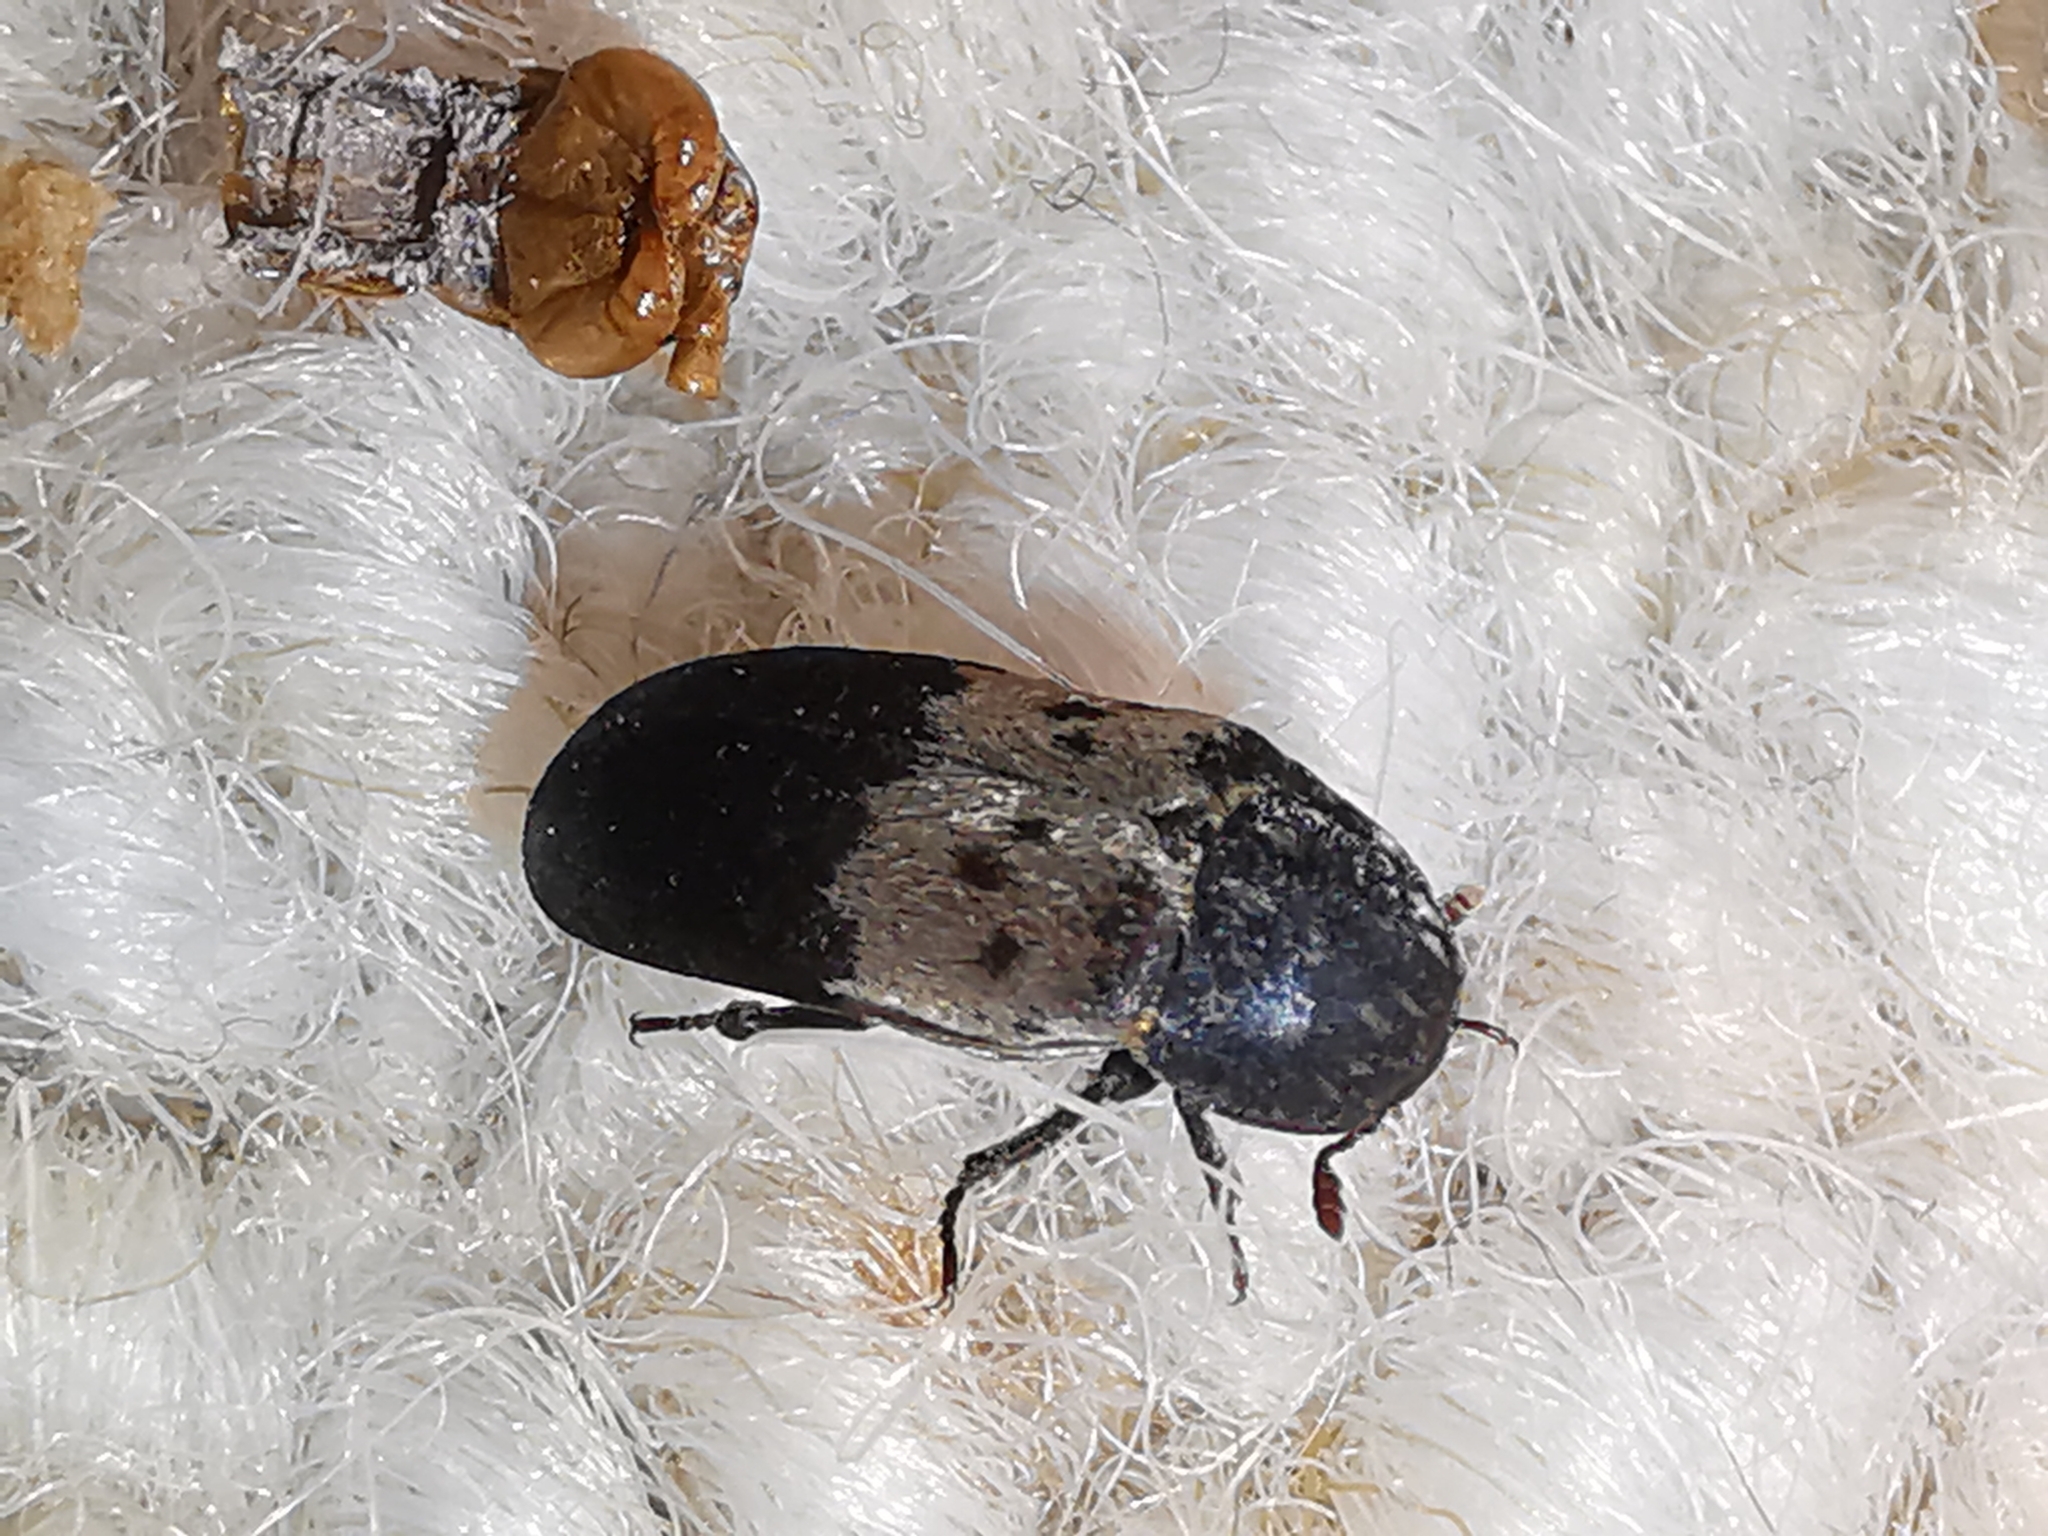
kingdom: Animalia
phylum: Arthropoda
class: Insecta
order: Coleoptera
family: Dermestidae
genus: Dermestes
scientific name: Dermestes lardarius
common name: Larder beetle
